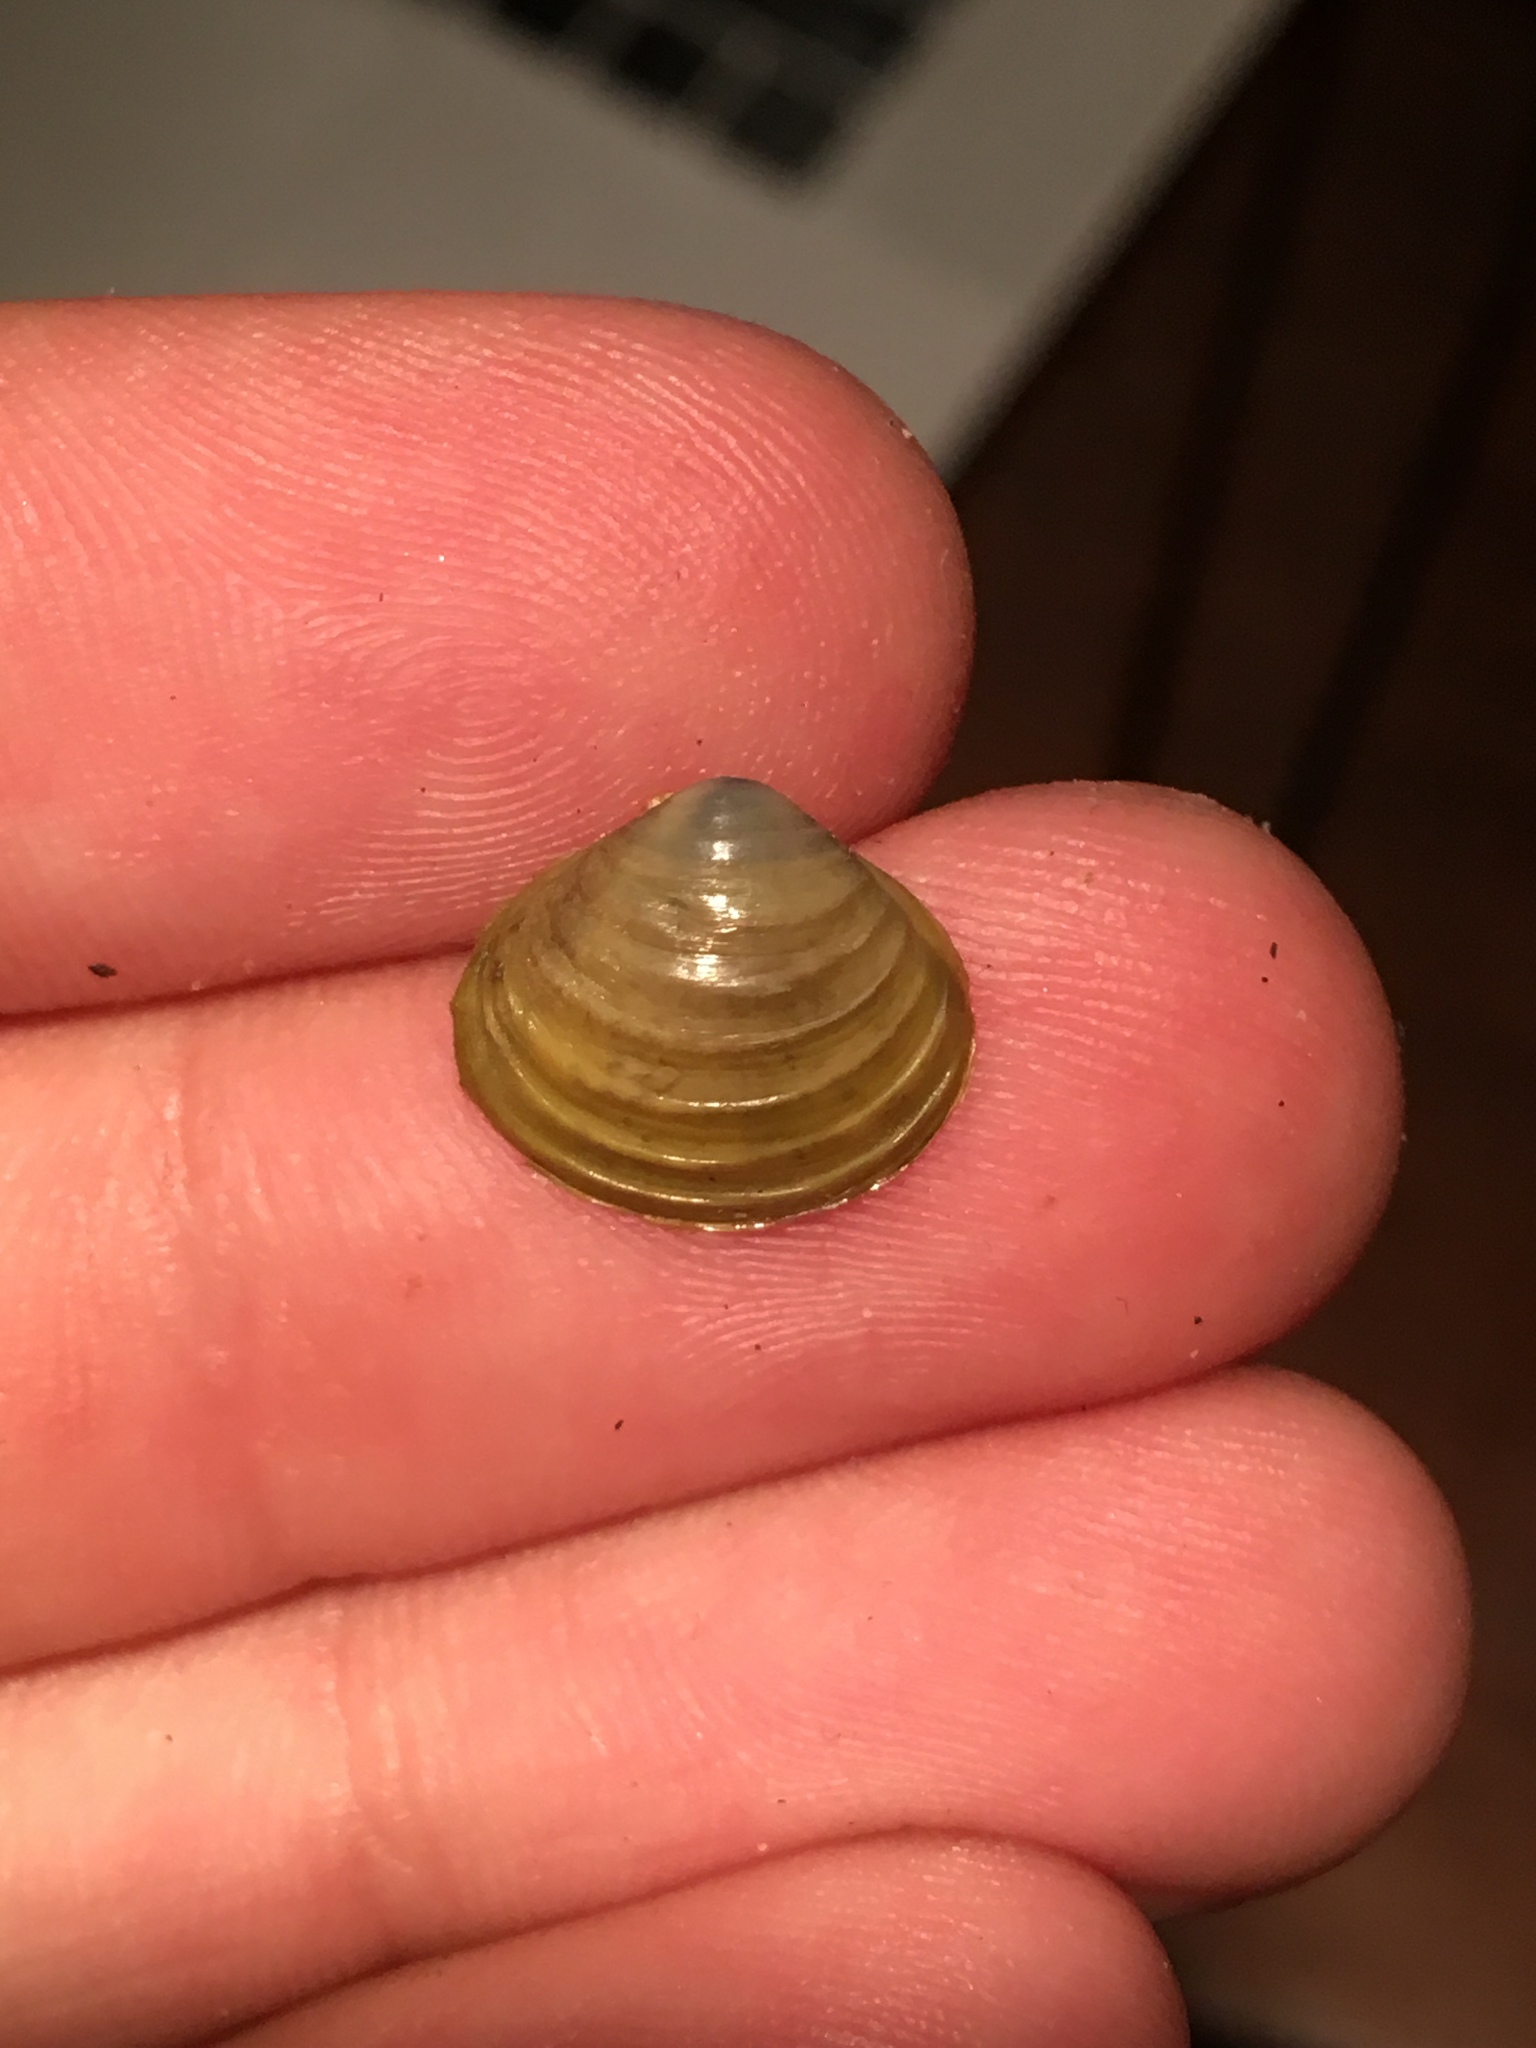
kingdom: Animalia
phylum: Mollusca
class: Bivalvia
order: Venerida
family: Cyrenidae
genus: Corbicula
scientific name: Corbicula fluminea
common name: Asian clam
